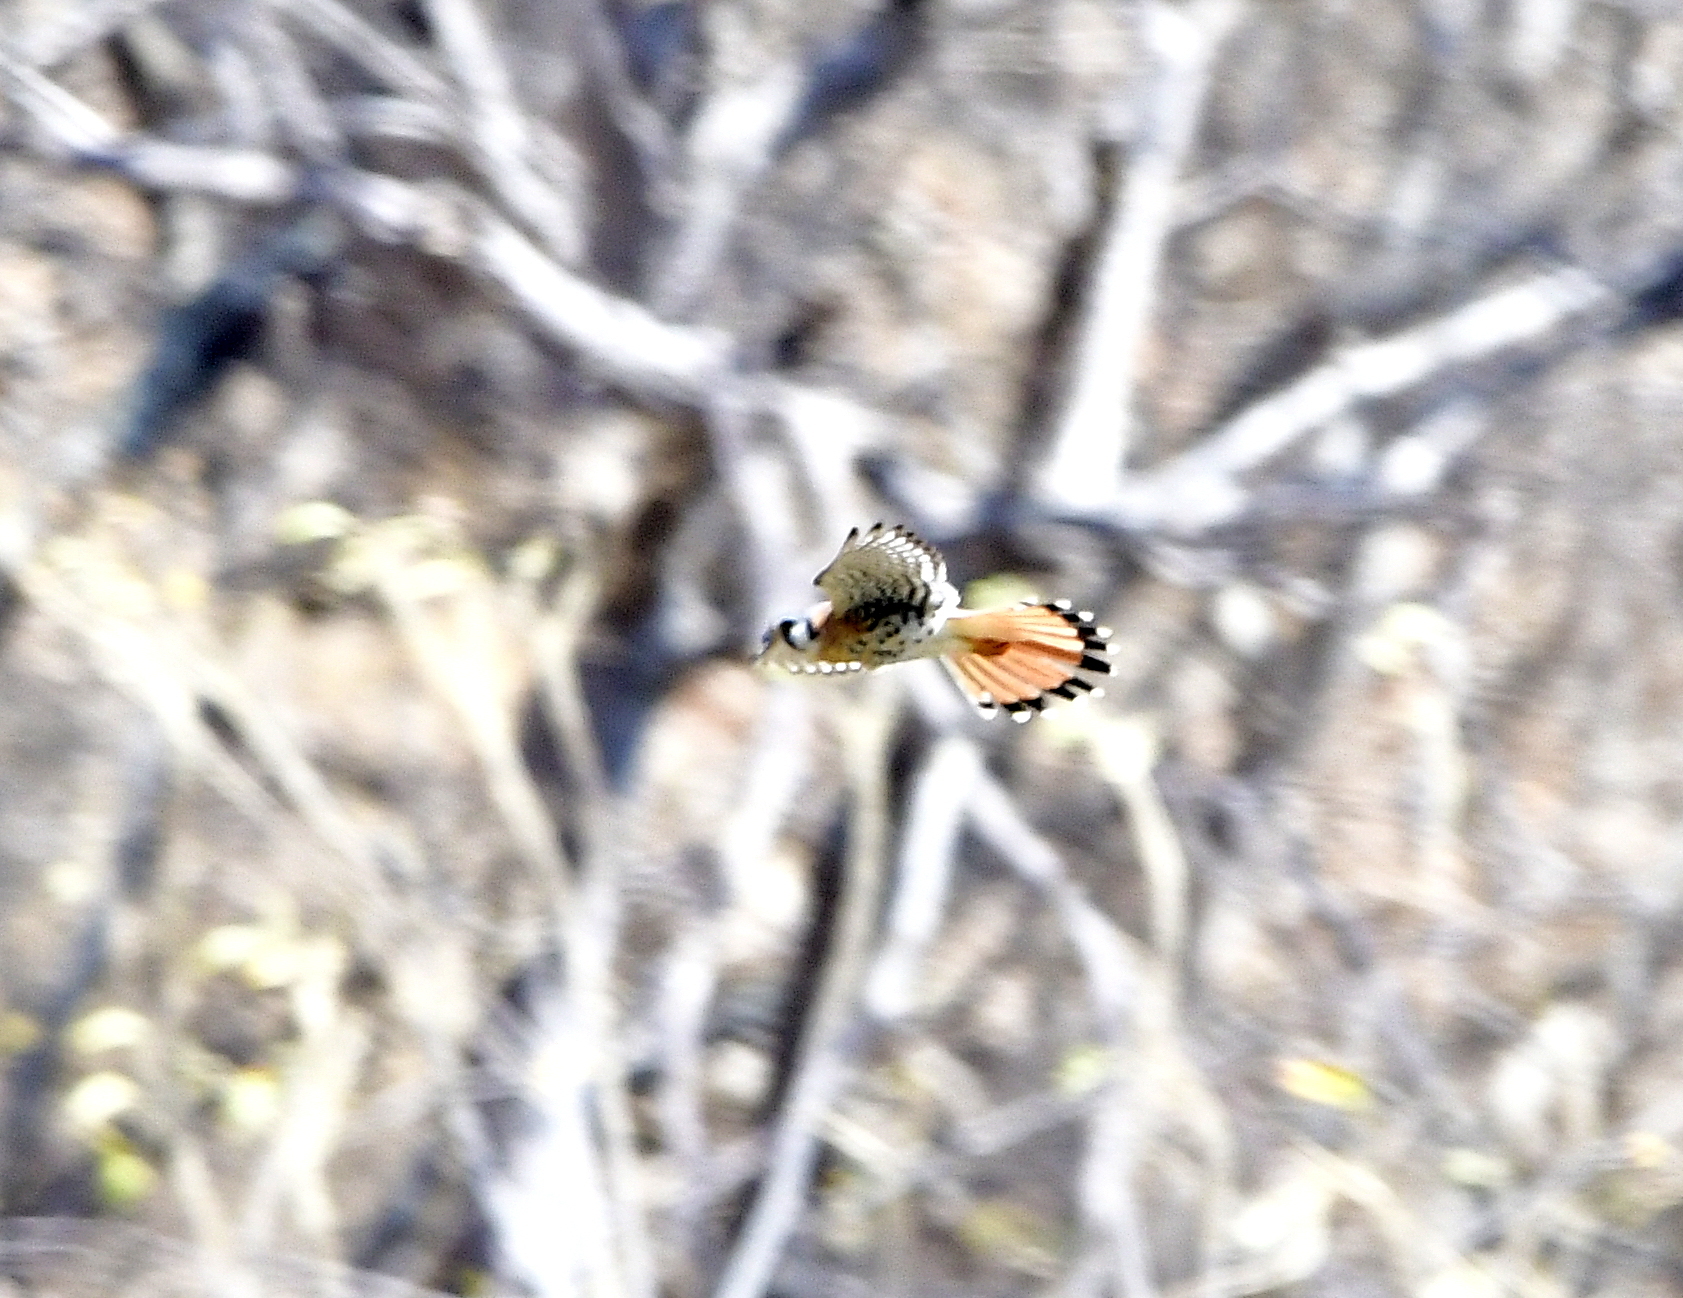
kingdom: Animalia
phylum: Chordata
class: Aves
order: Falconiformes
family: Falconidae
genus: Falco
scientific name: Falco sparverius
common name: American kestrel
